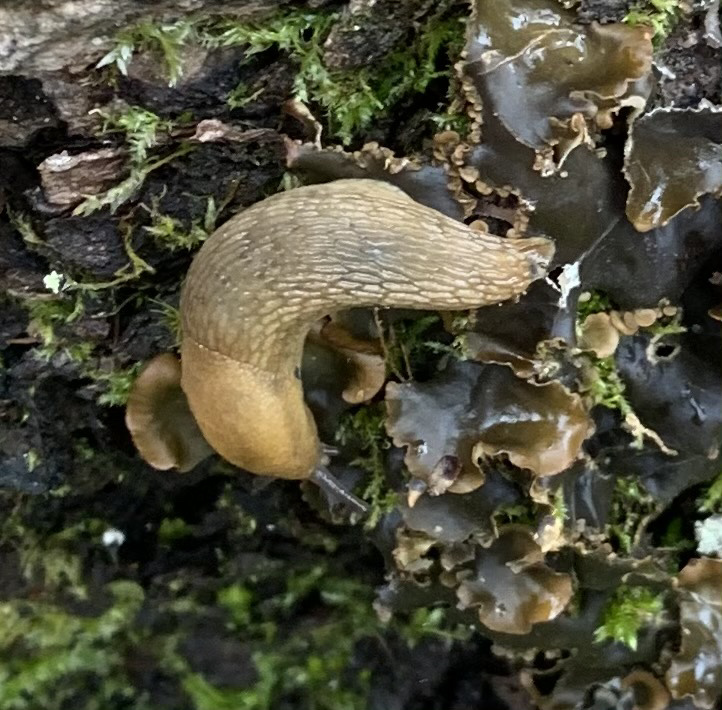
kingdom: Animalia
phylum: Mollusca
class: Gastropoda
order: Stylommatophora
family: Arionidae
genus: Arion
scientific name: Arion subfuscus
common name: Dusky arion
